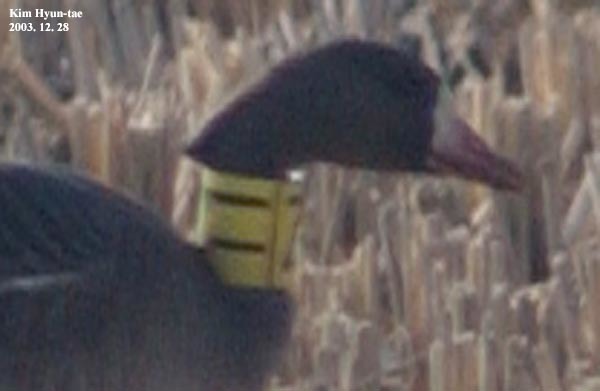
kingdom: Animalia
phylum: Chordata
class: Aves
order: Anseriformes
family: Anatidae
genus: Anser
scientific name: Anser albifrons
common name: Greater white-fronted goose
